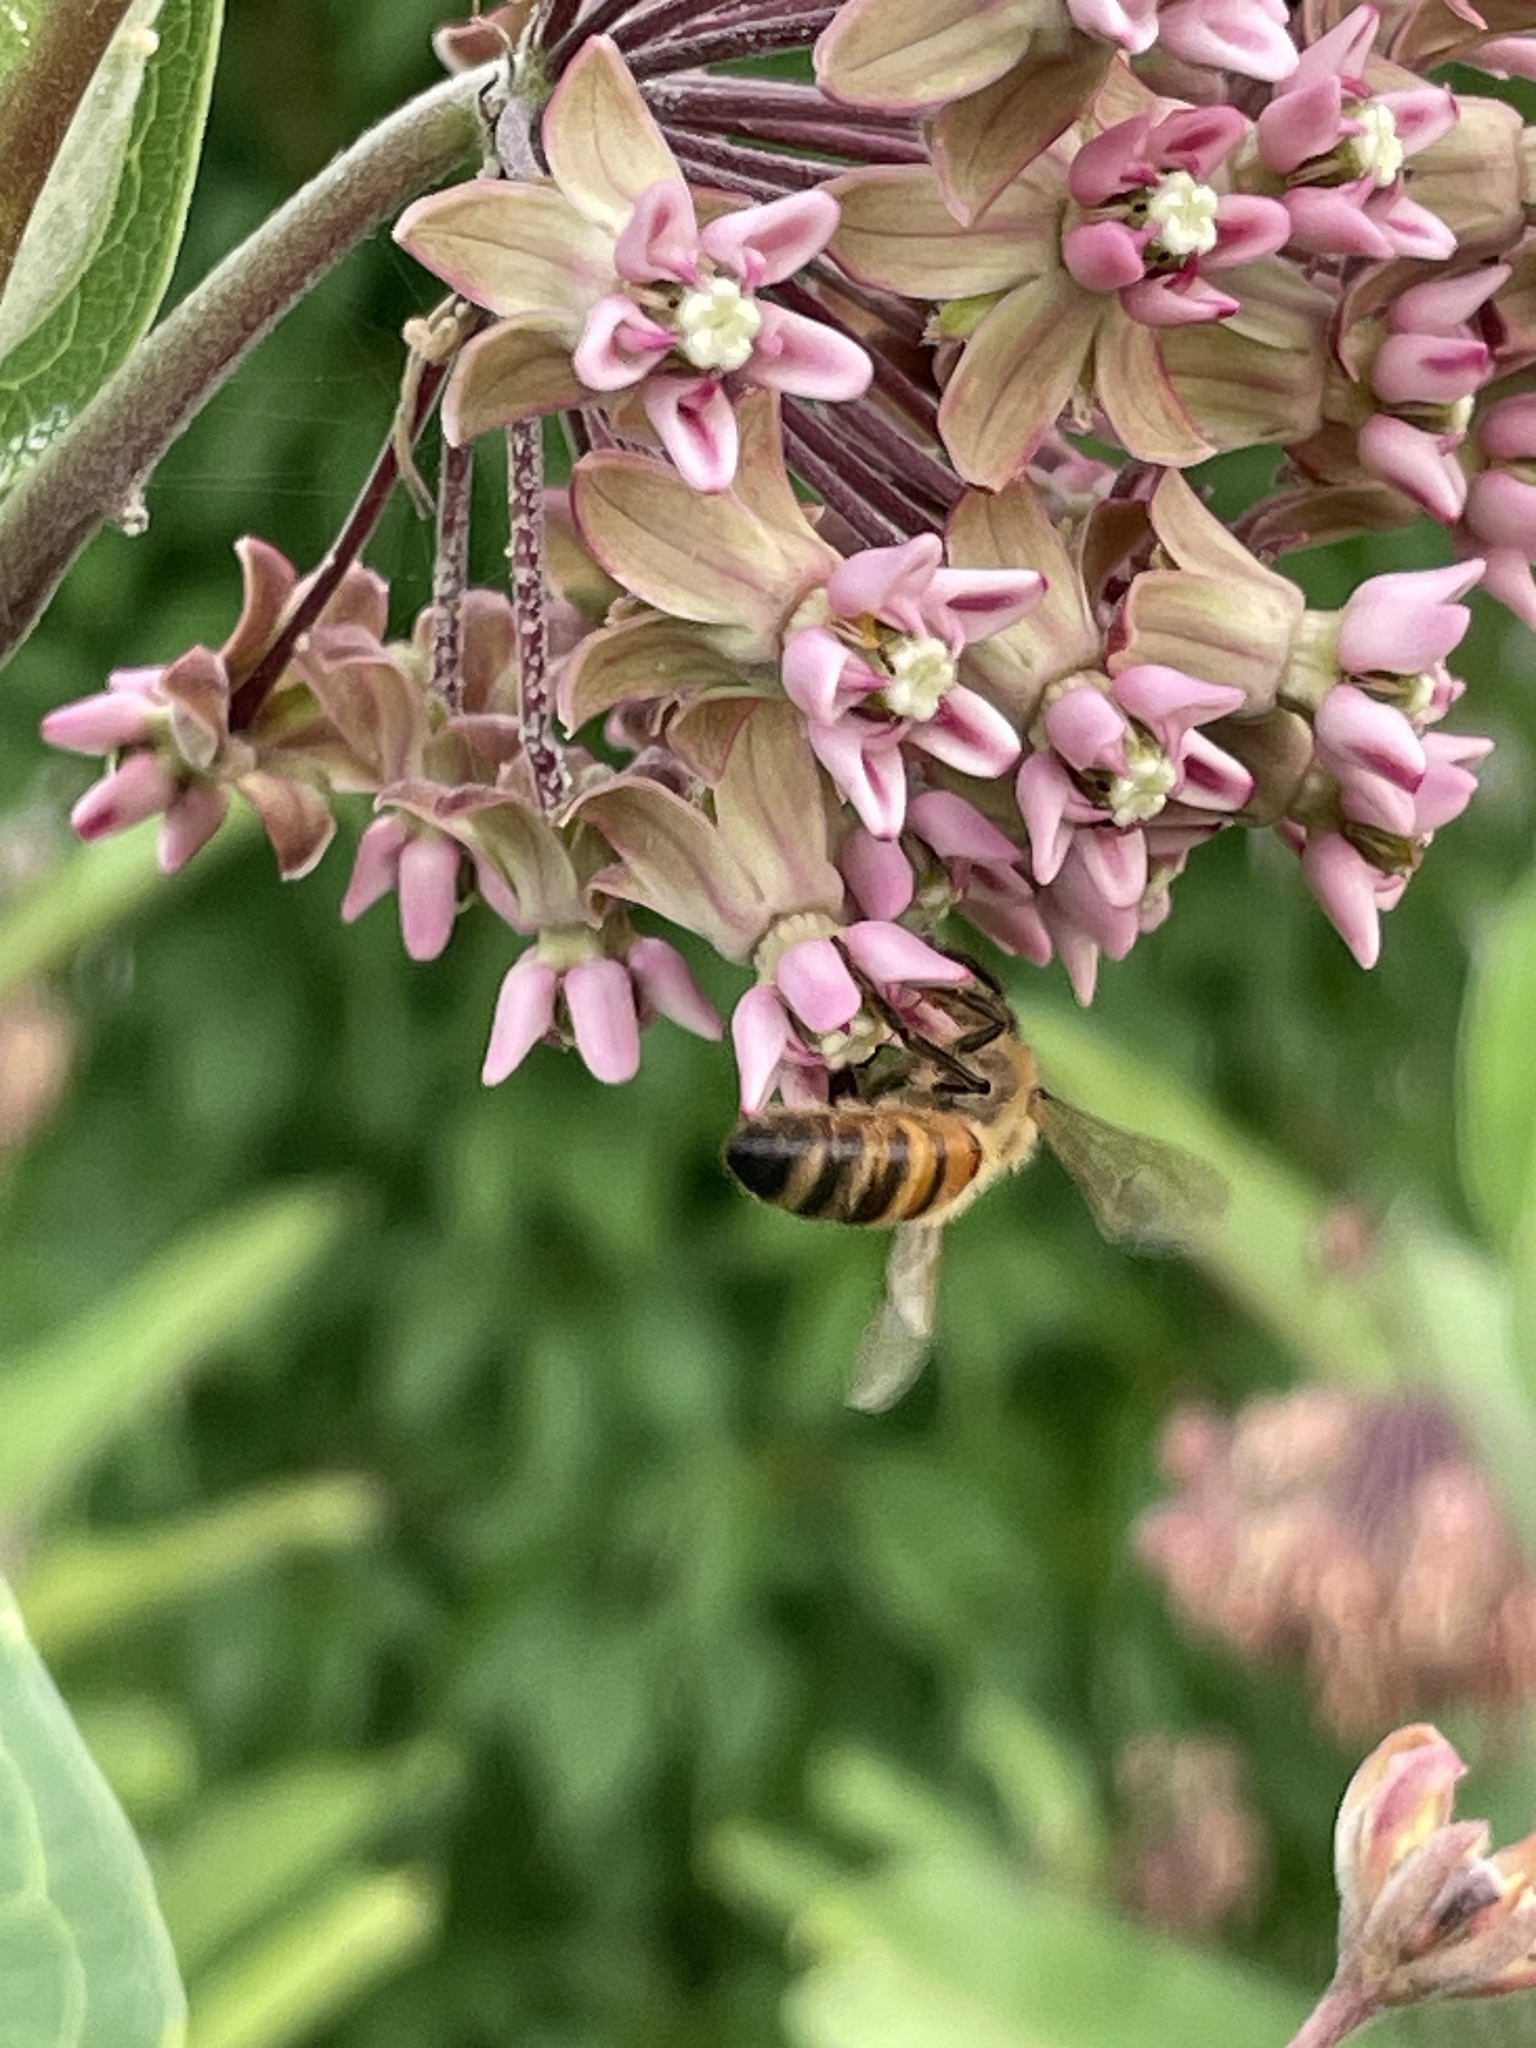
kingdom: Animalia
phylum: Arthropoda
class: Insecta
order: Hymenoptera
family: Apidae
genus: Apis
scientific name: Apis mellifera
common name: Honey bee
